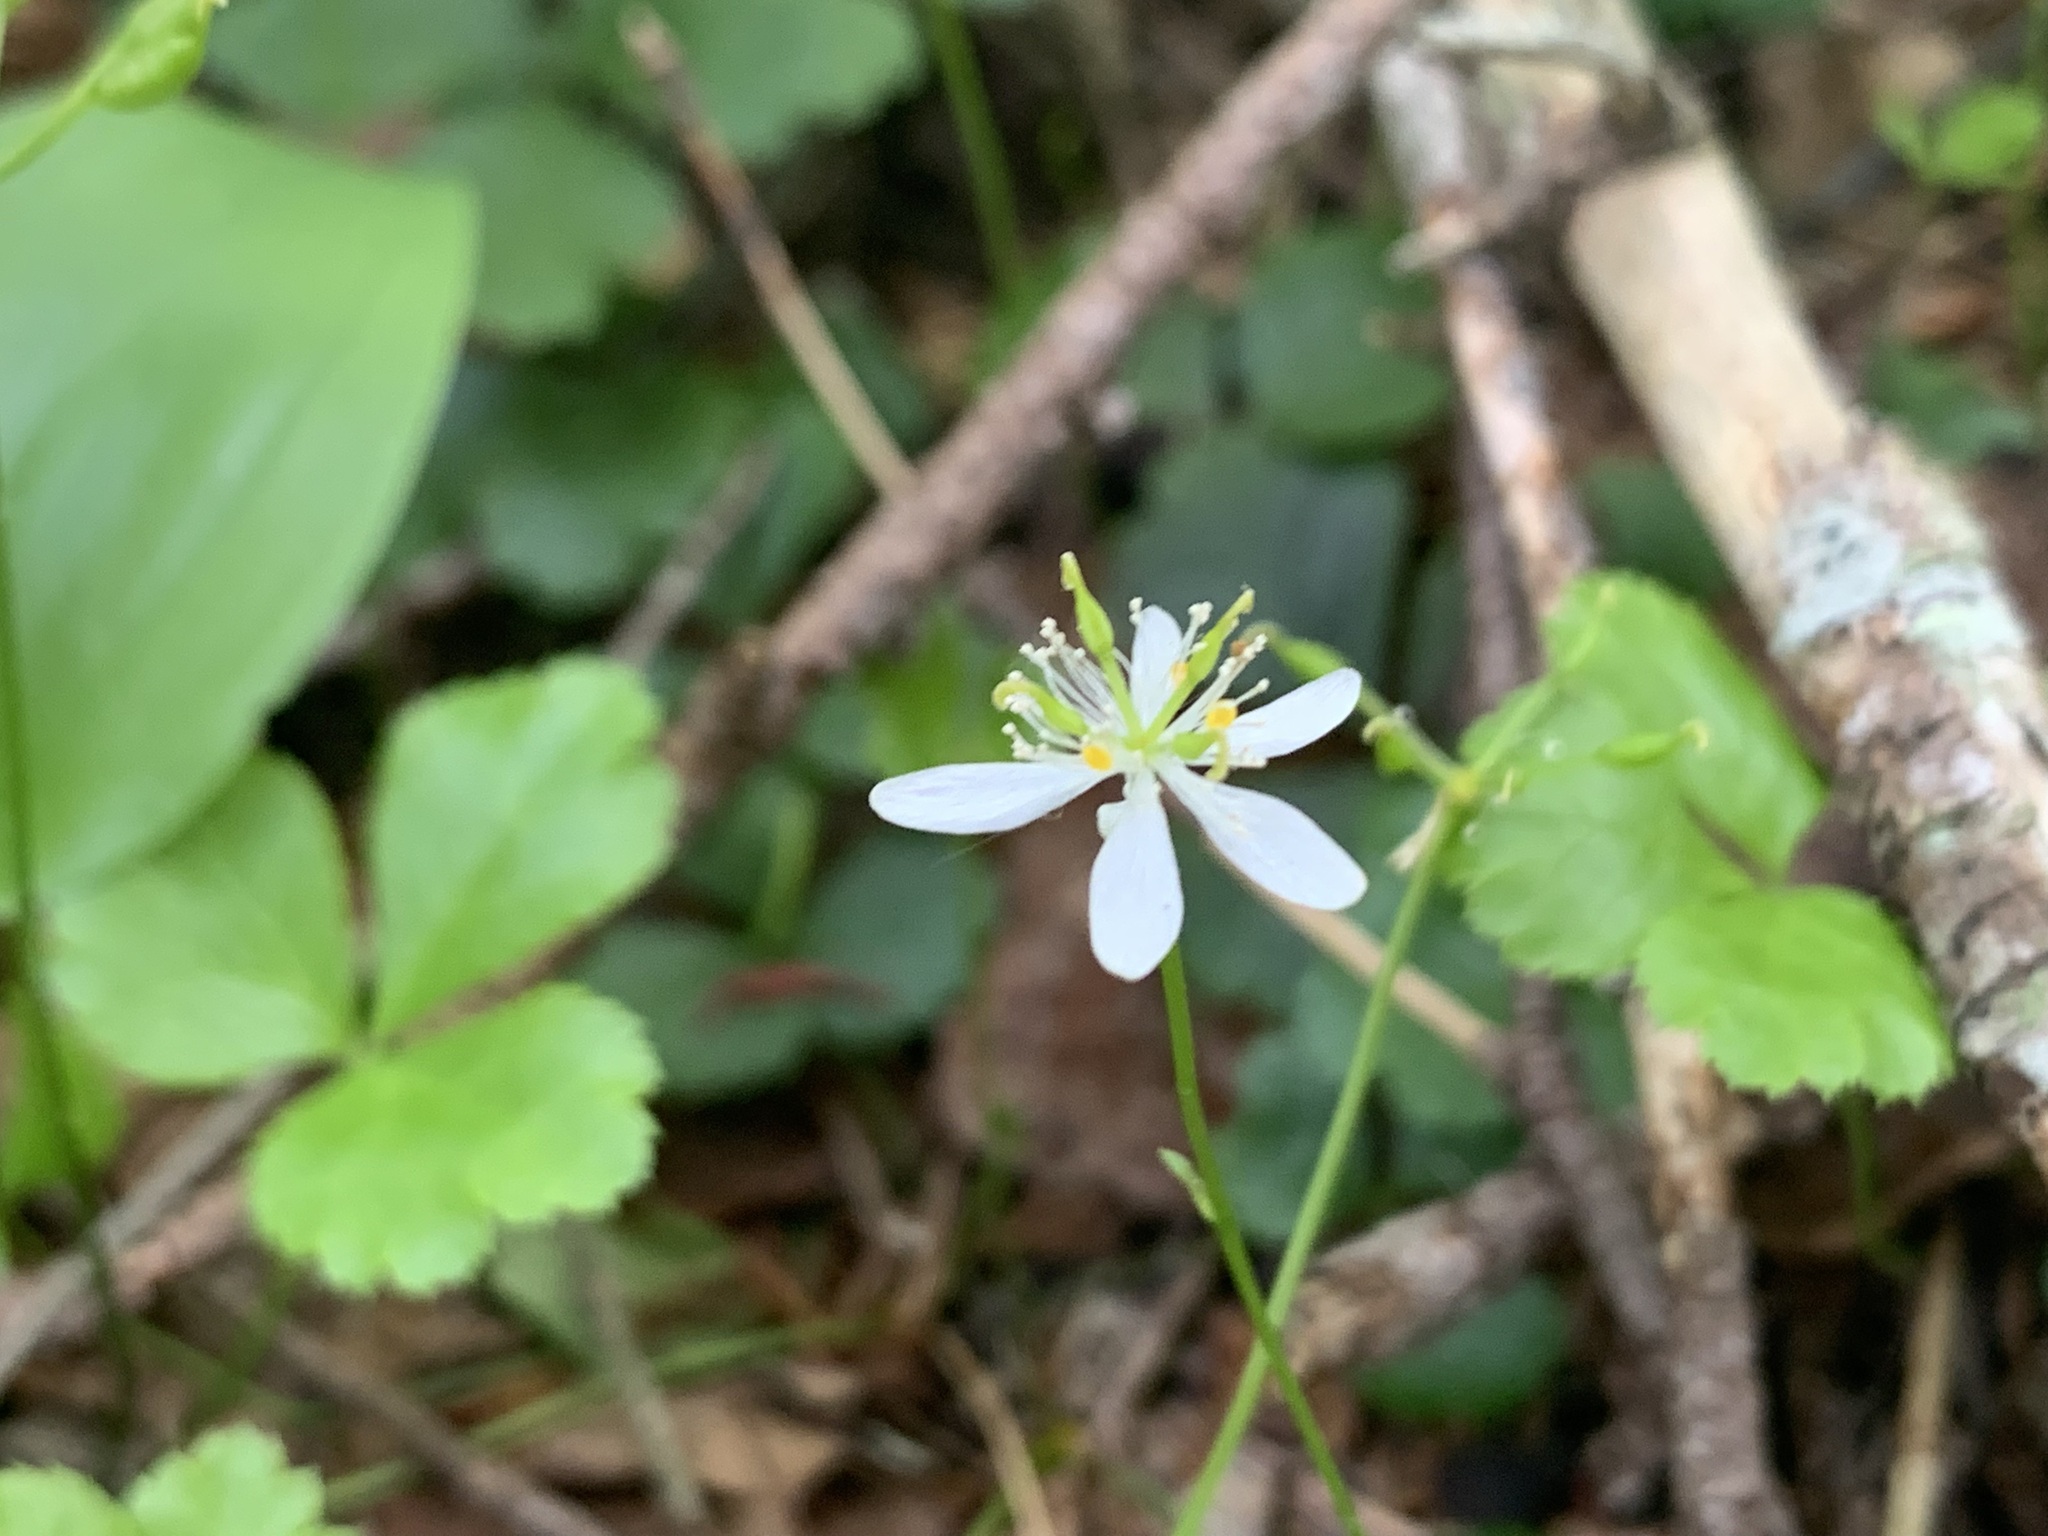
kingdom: Plantae
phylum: Tracheophyta
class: Magnoliopsida
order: Ranunculales
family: Ranunculaceae
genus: Coptis
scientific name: Coptis trifolia
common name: Canker-root
